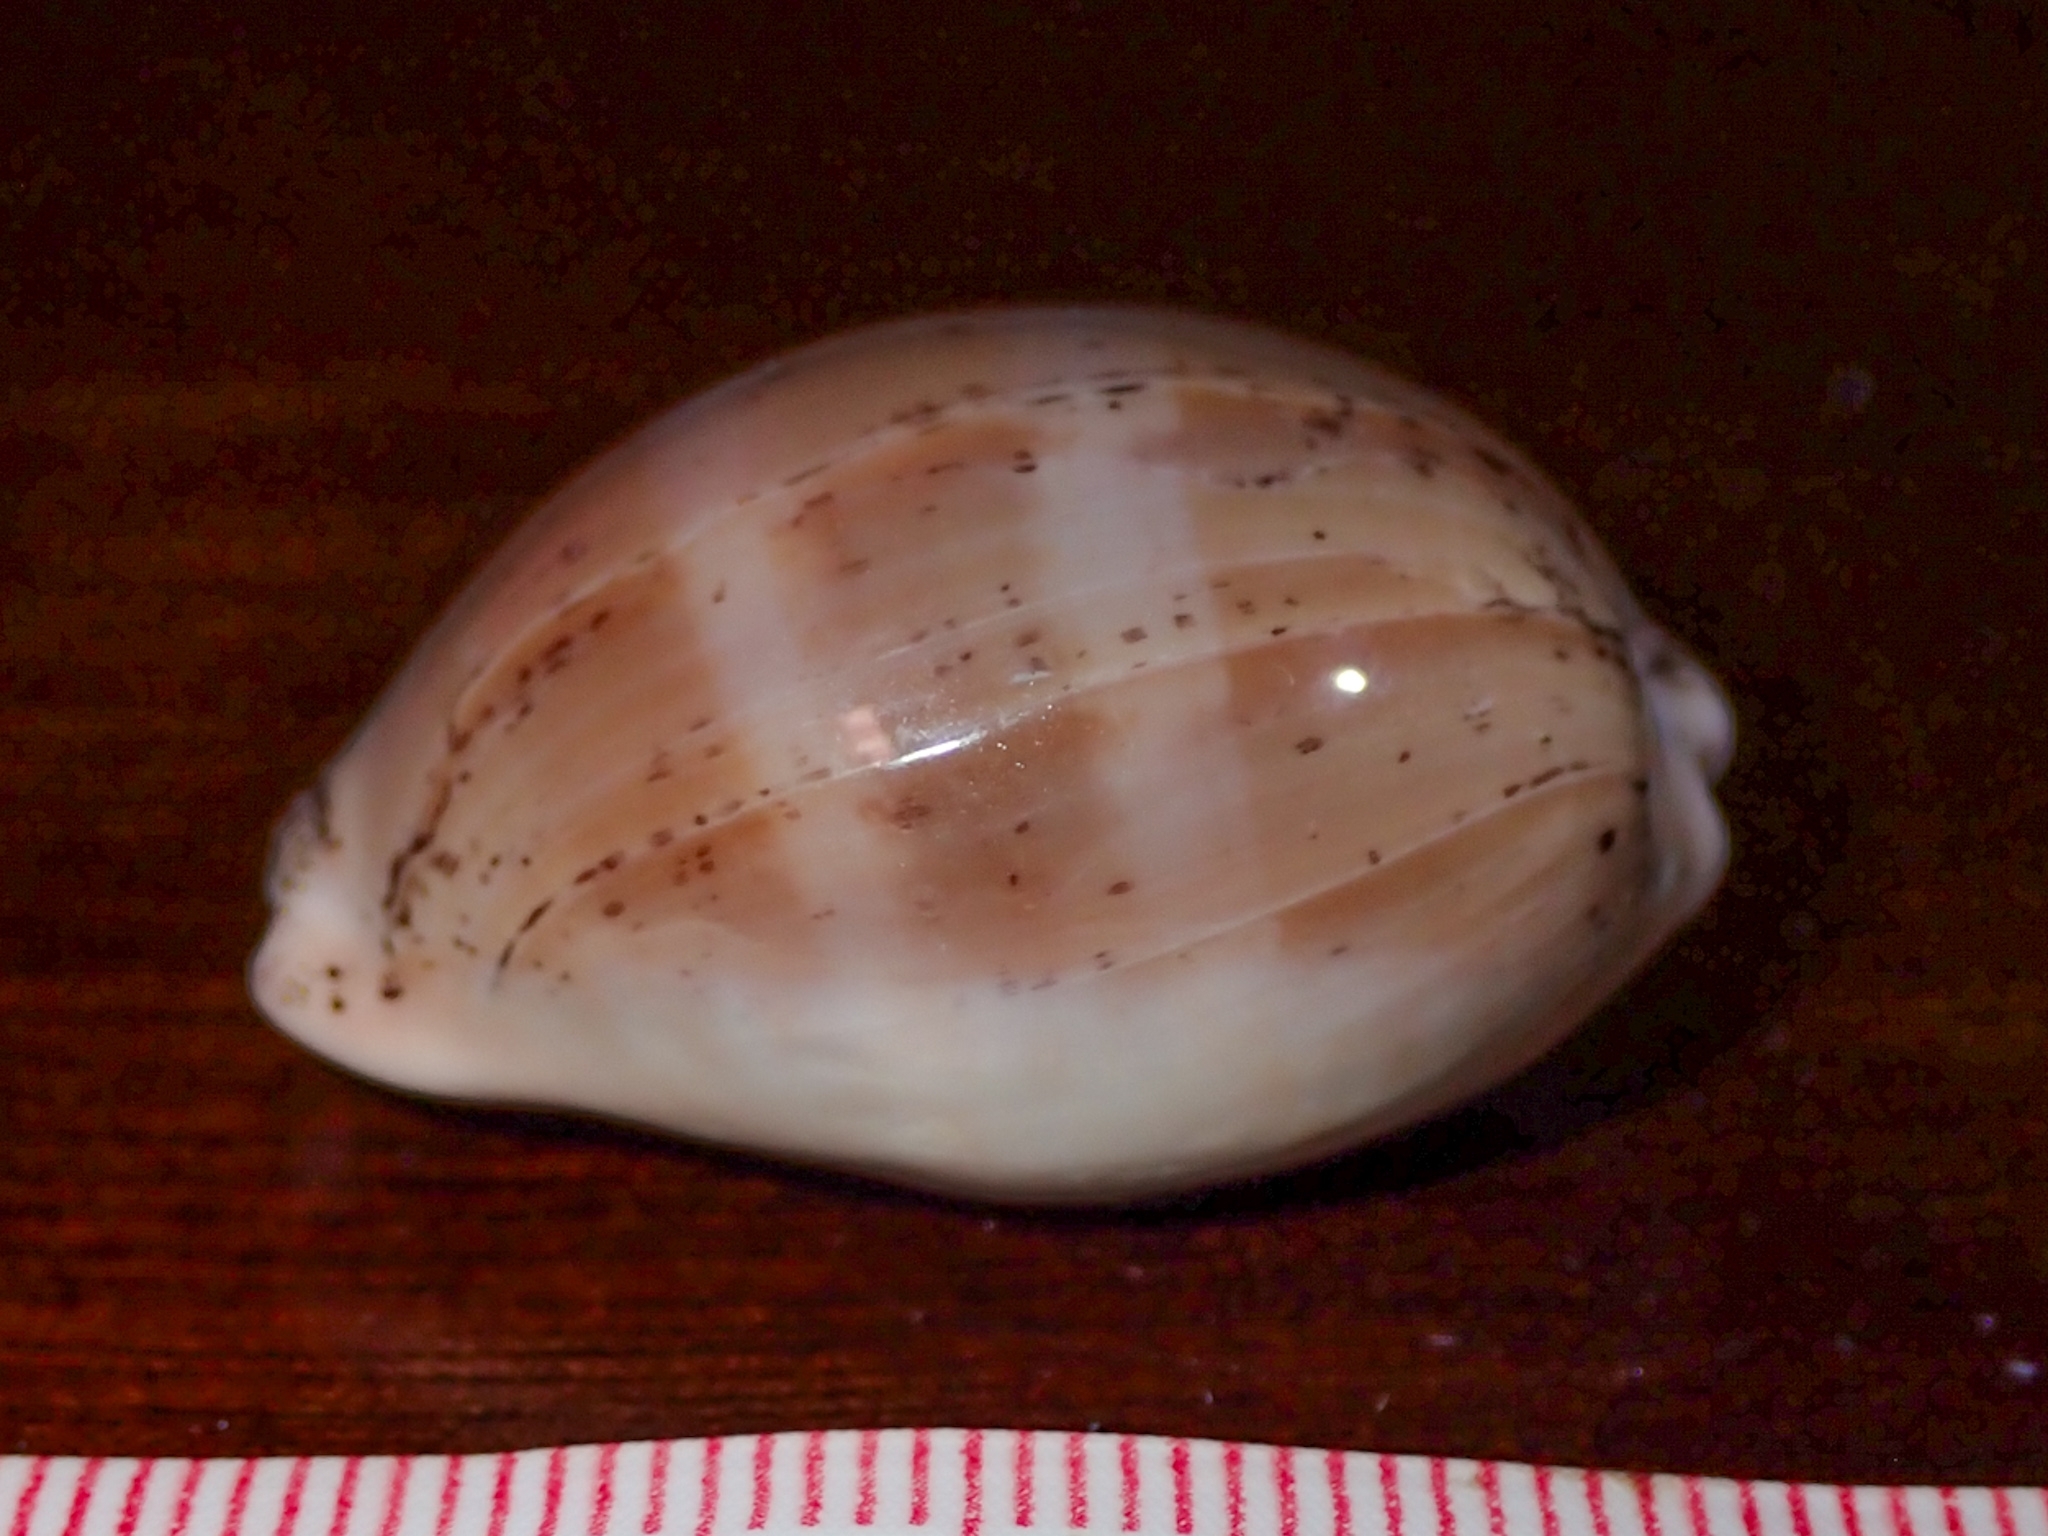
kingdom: Animalia
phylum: Mollusca
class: Gastropoda
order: Littorinimorpha
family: Cypraeidae
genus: Luria
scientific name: Luria cinerea
